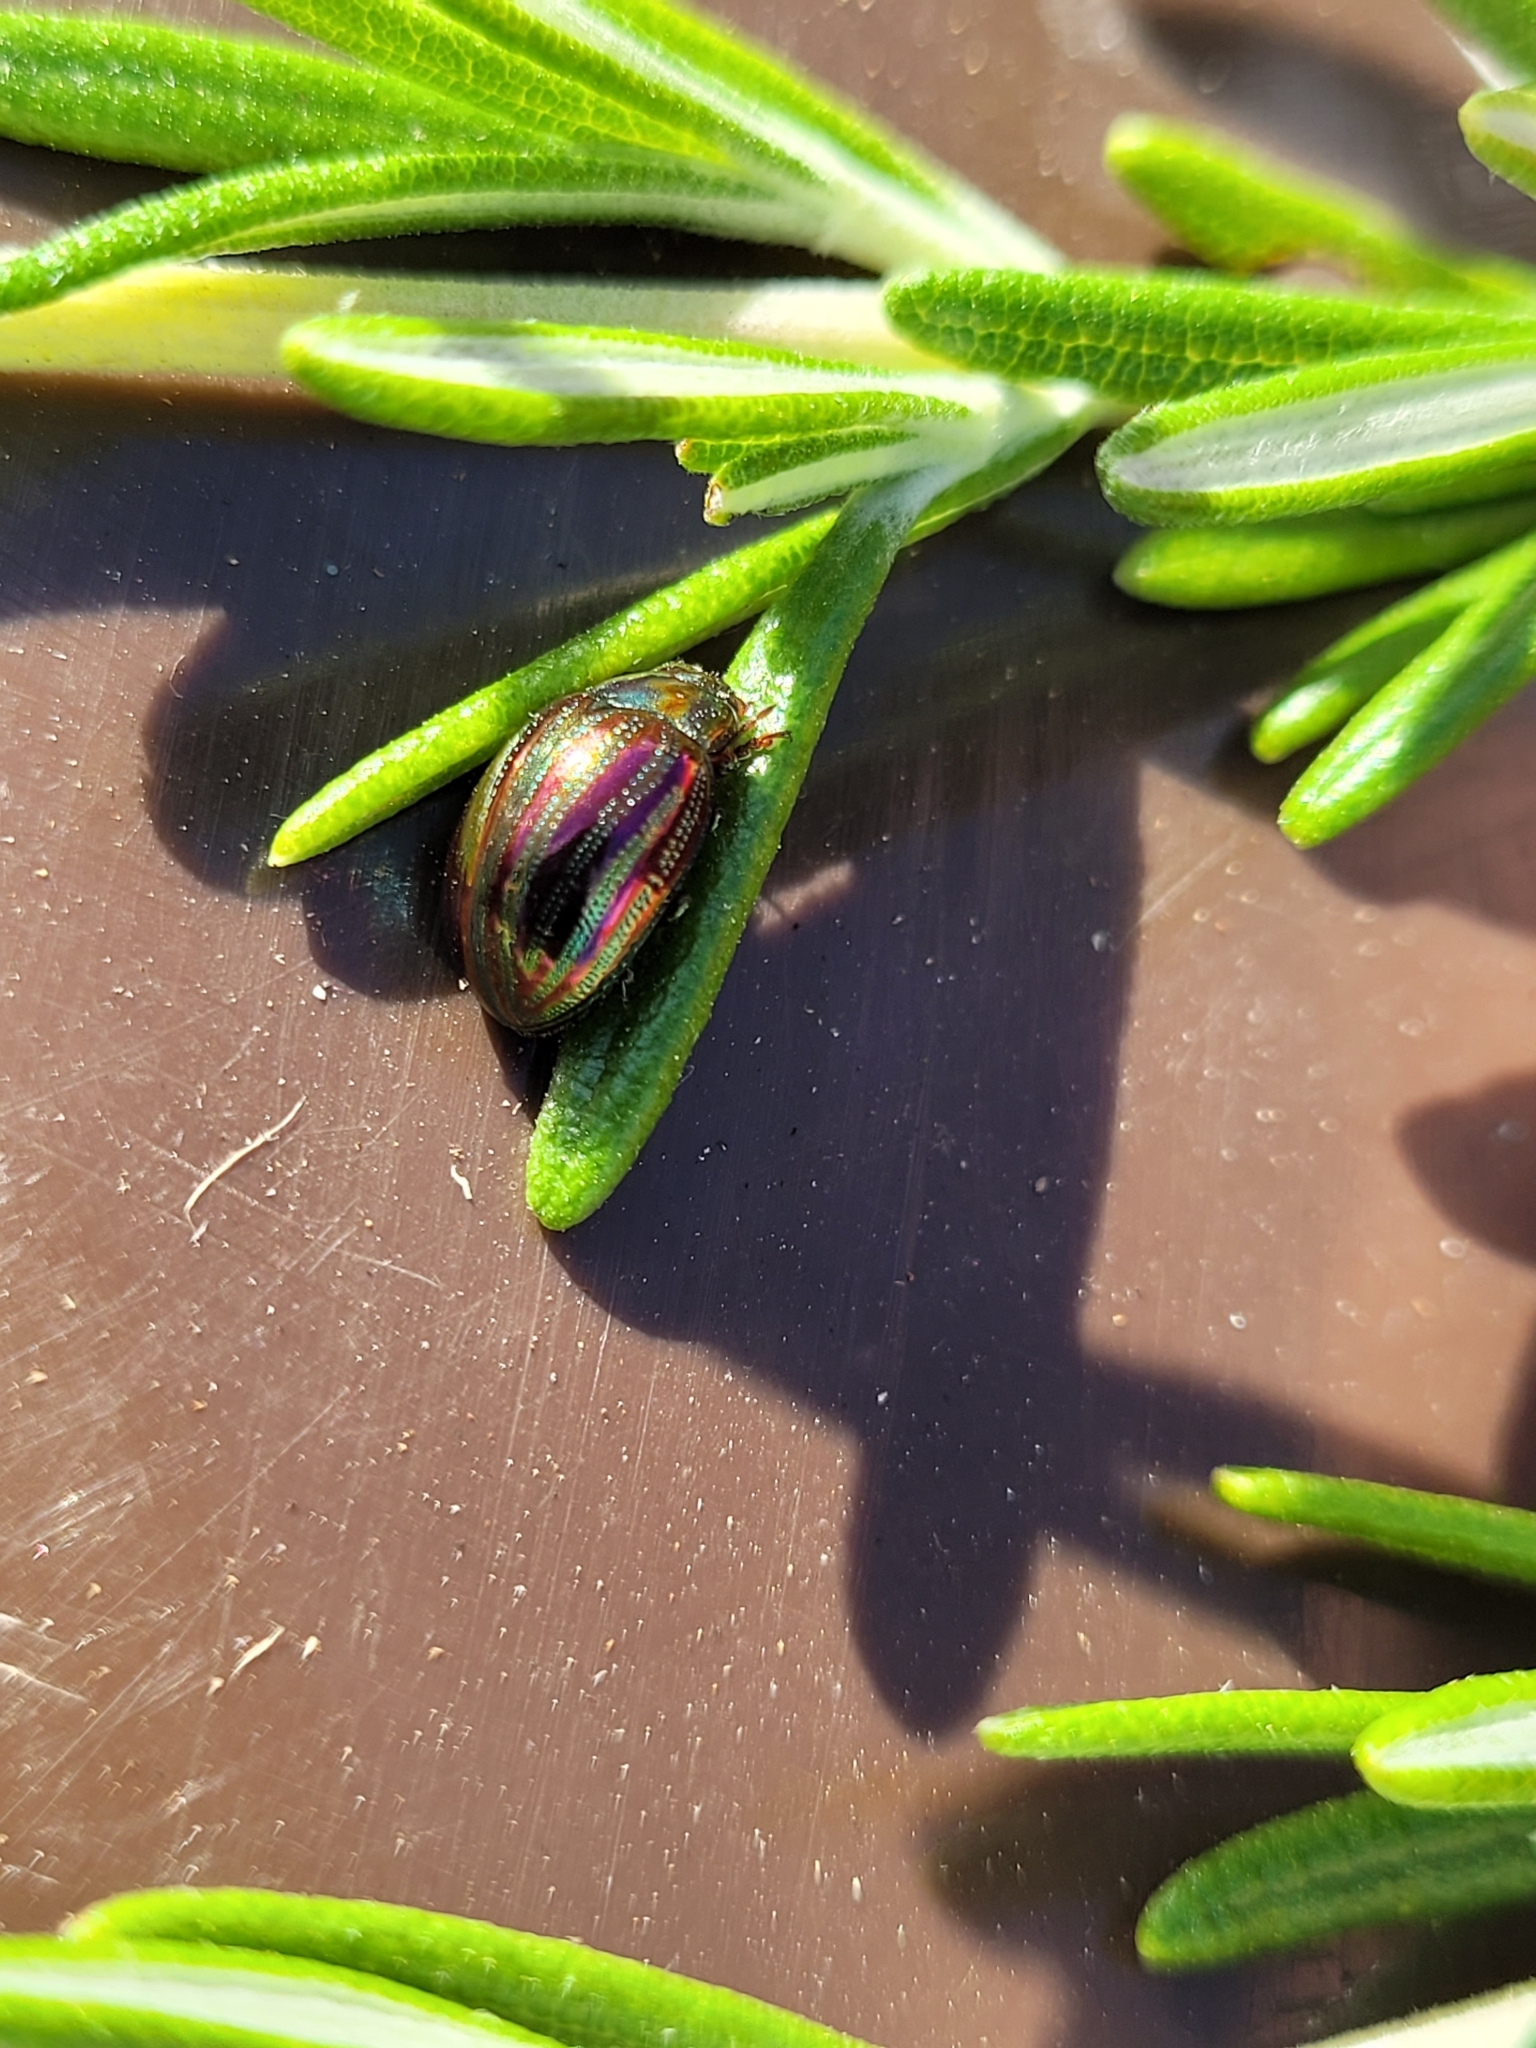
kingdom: Animalia
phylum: Arthropoda
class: Insecta
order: Coleoptera
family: Chrysomelidae
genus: Chrysolina
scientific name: Chrysolina americana
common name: Rosemary beetle
